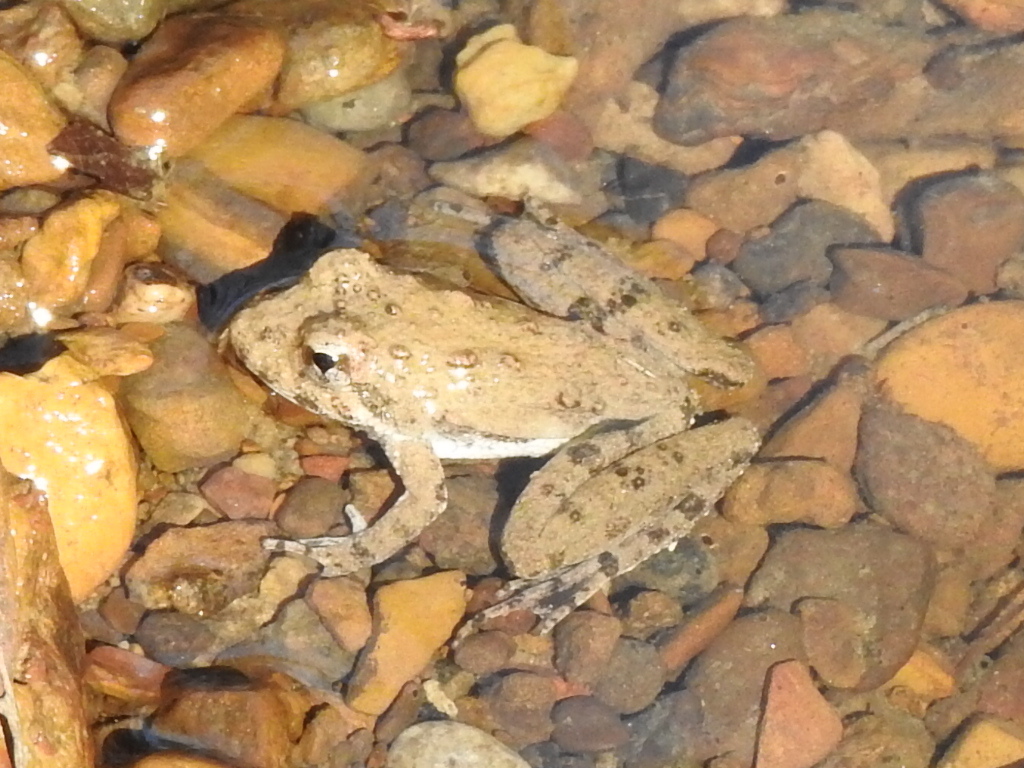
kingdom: Animalia
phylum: Chordata
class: Amphibia
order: Anura
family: Hylidae
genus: Acris
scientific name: Acris blanchardi
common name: Blanchard's cricket frog
